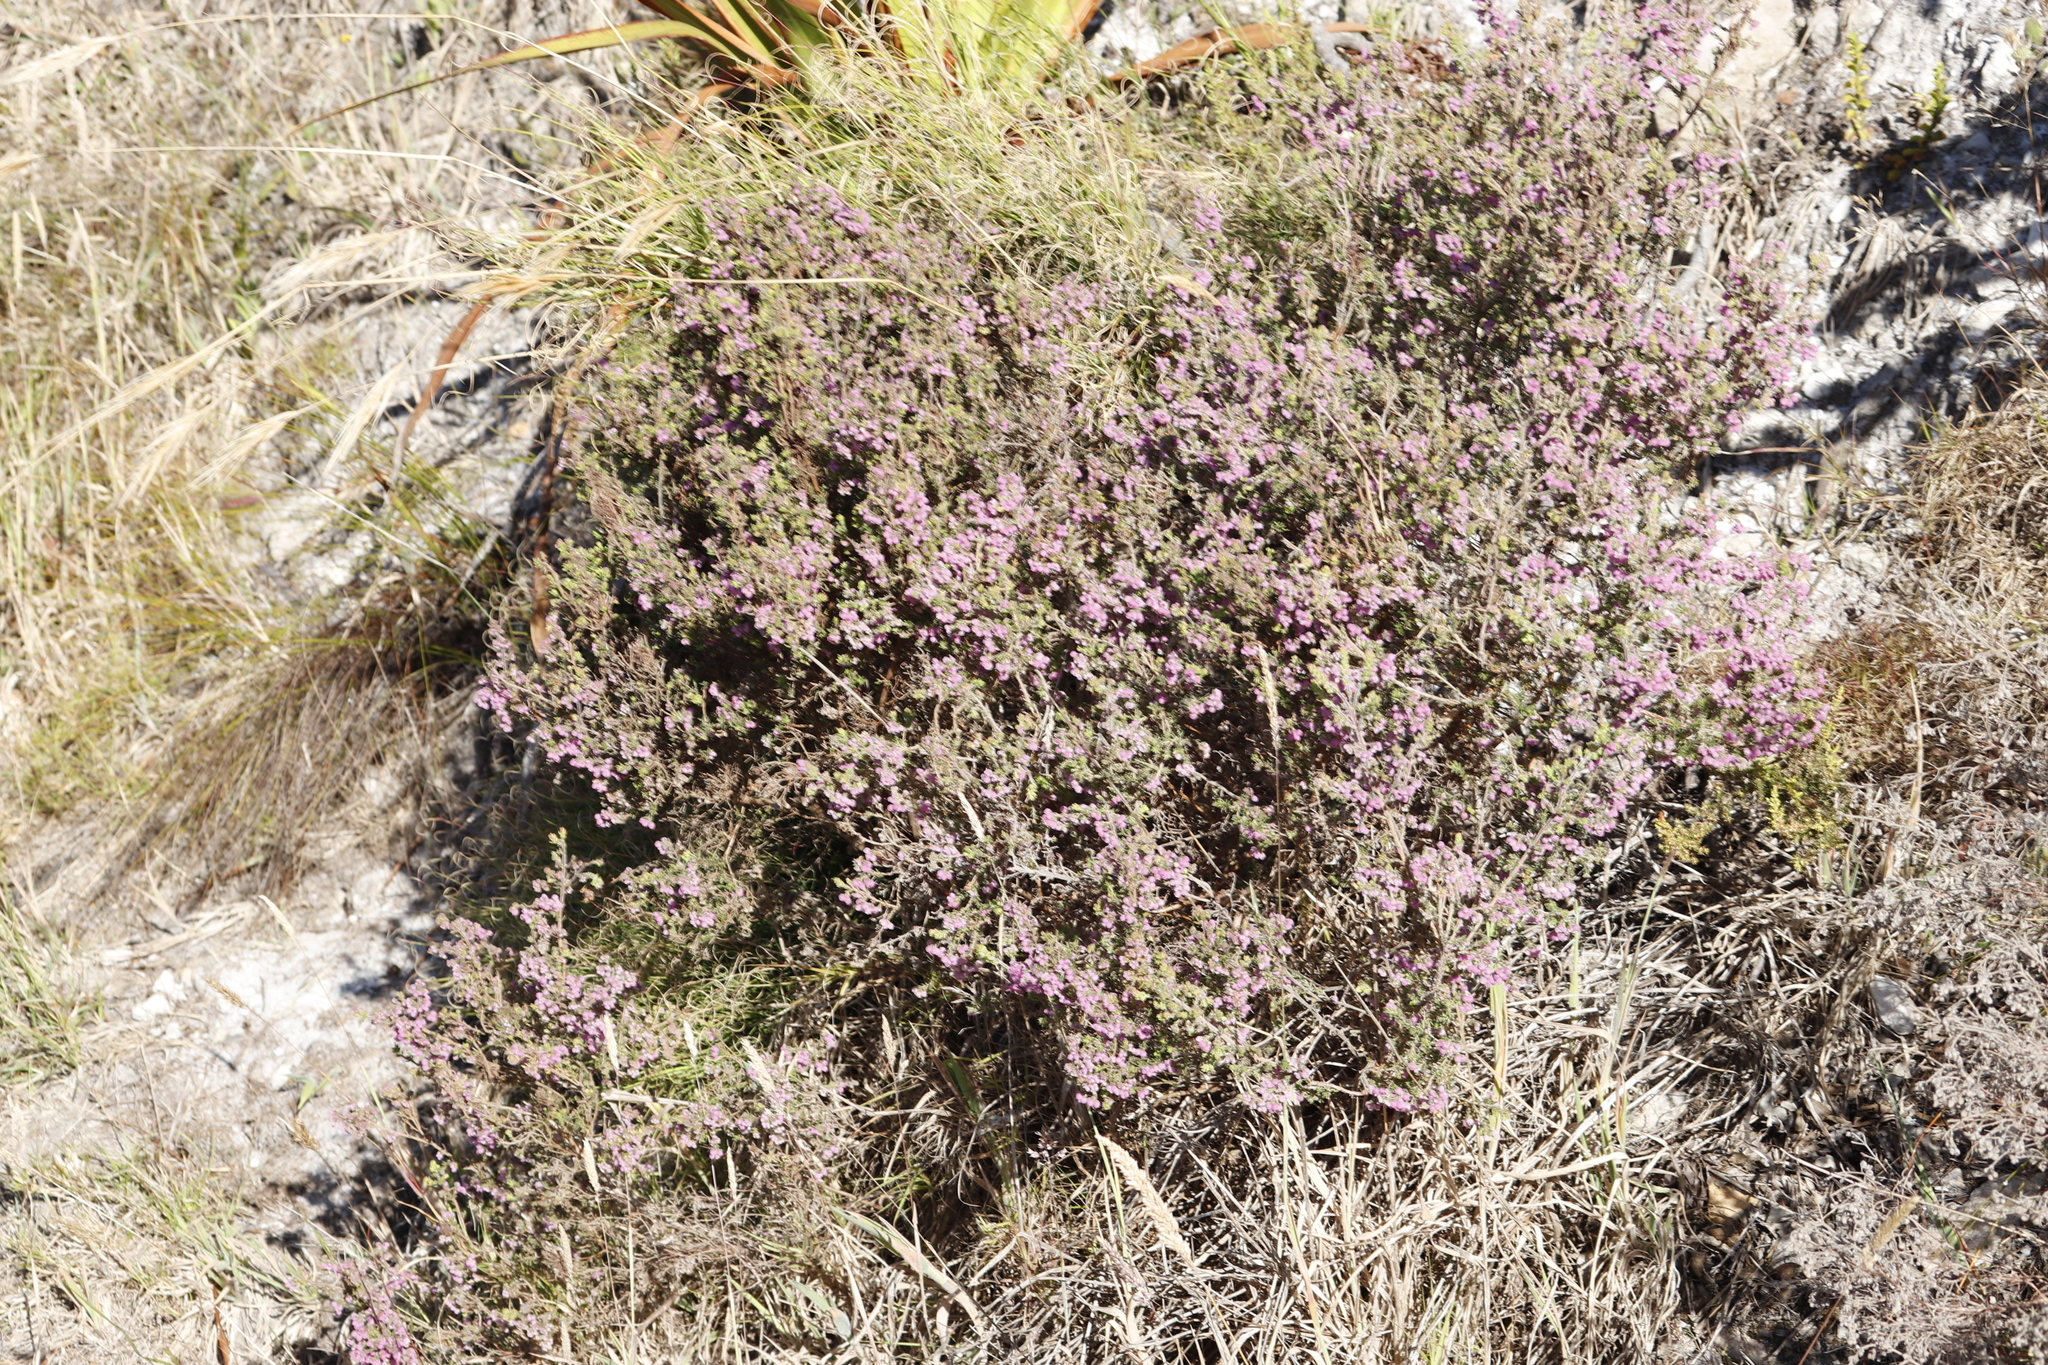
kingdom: Plantae
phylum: Tracheophyta
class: Magnoliopsida
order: Ericales
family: Ericaceae
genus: Erica
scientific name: Erica hirtiflora
